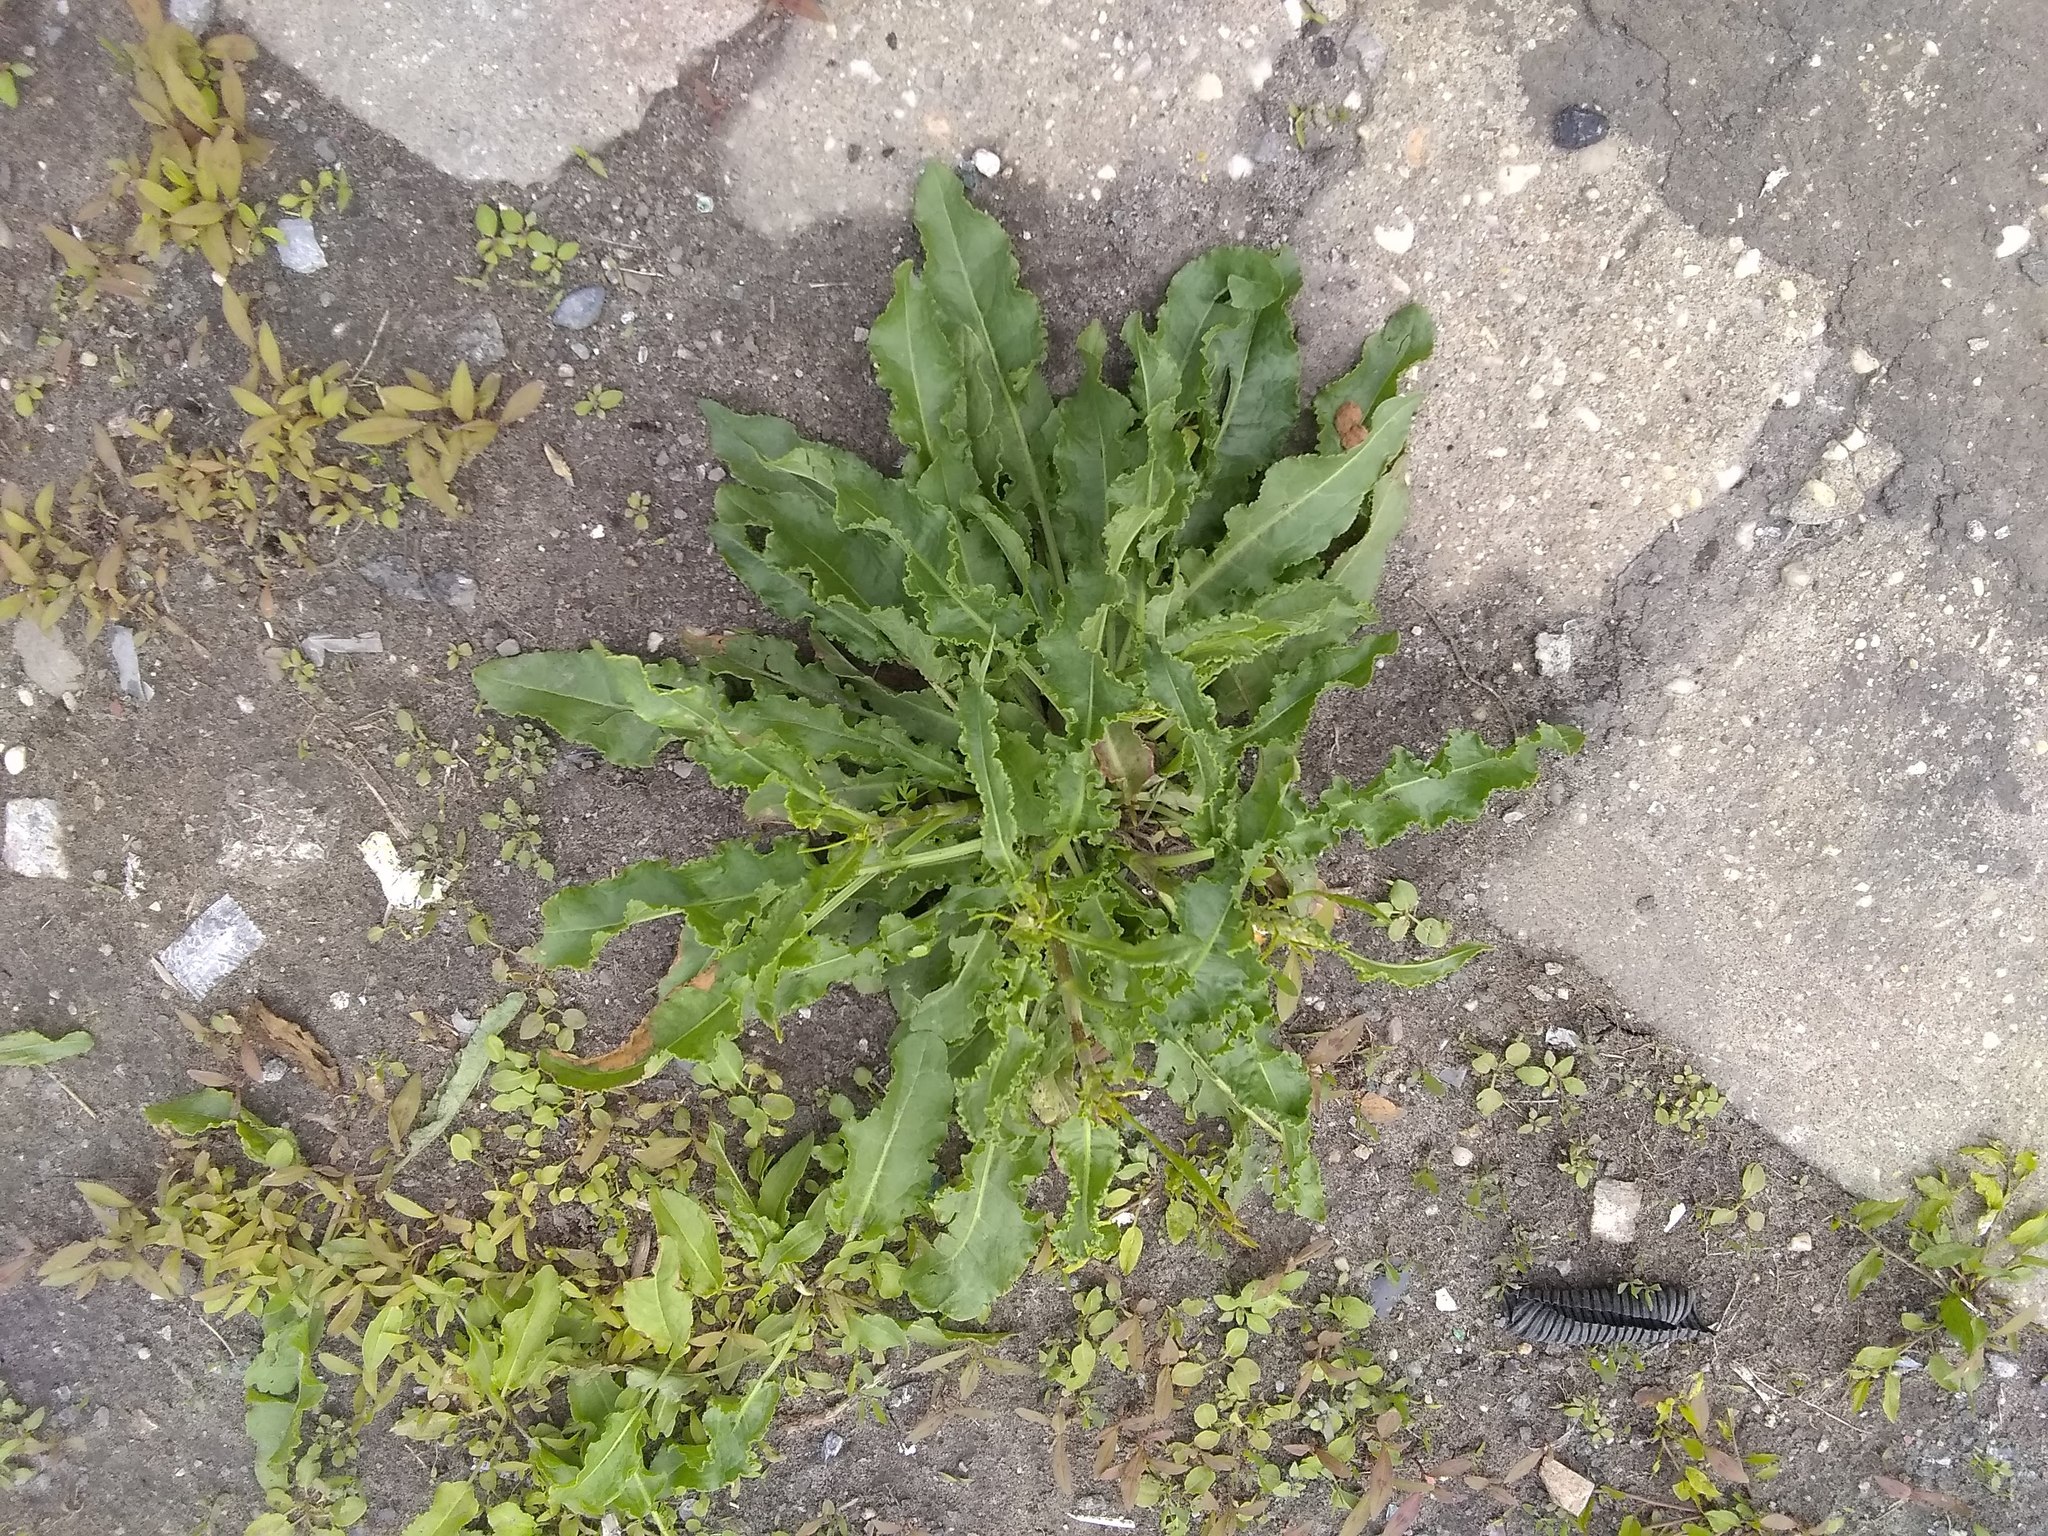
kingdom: Plantae
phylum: Tracheophyta
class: Magnoliopsida
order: Caryophyllales
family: Polygonaceae
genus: Rumex
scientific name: Rumex crispus
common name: Curled dock
